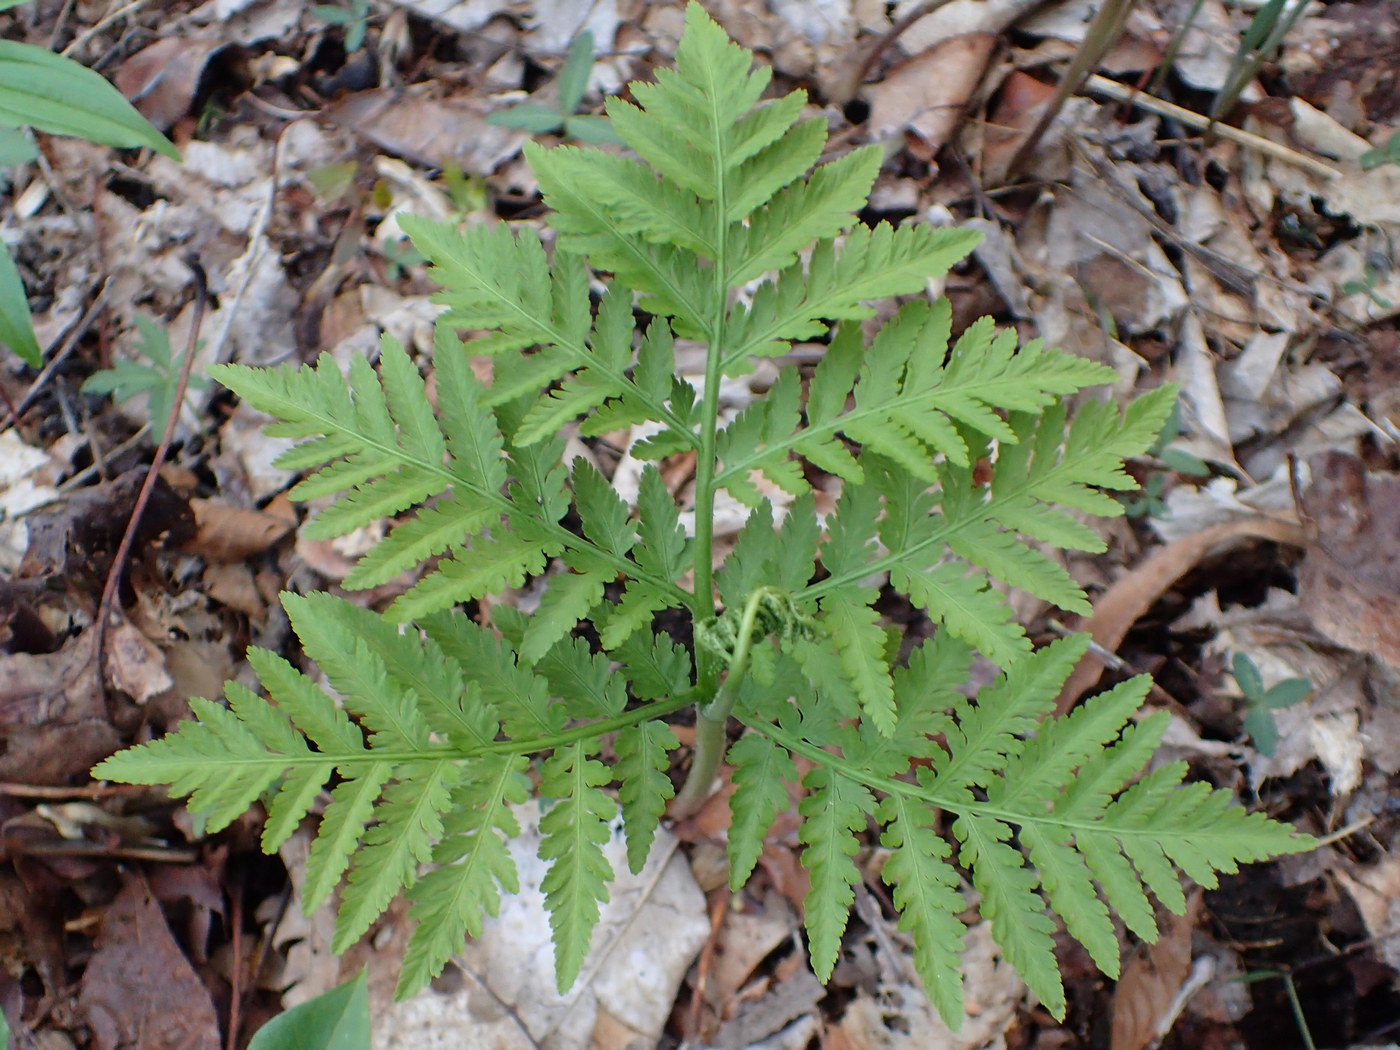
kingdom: Plantae
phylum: Tracheophyta
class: Polypodiopsida
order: Ophioglossales
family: Ophioglossaceae
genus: Botrypus
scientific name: Botrypus virginianus
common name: Common grapefern
